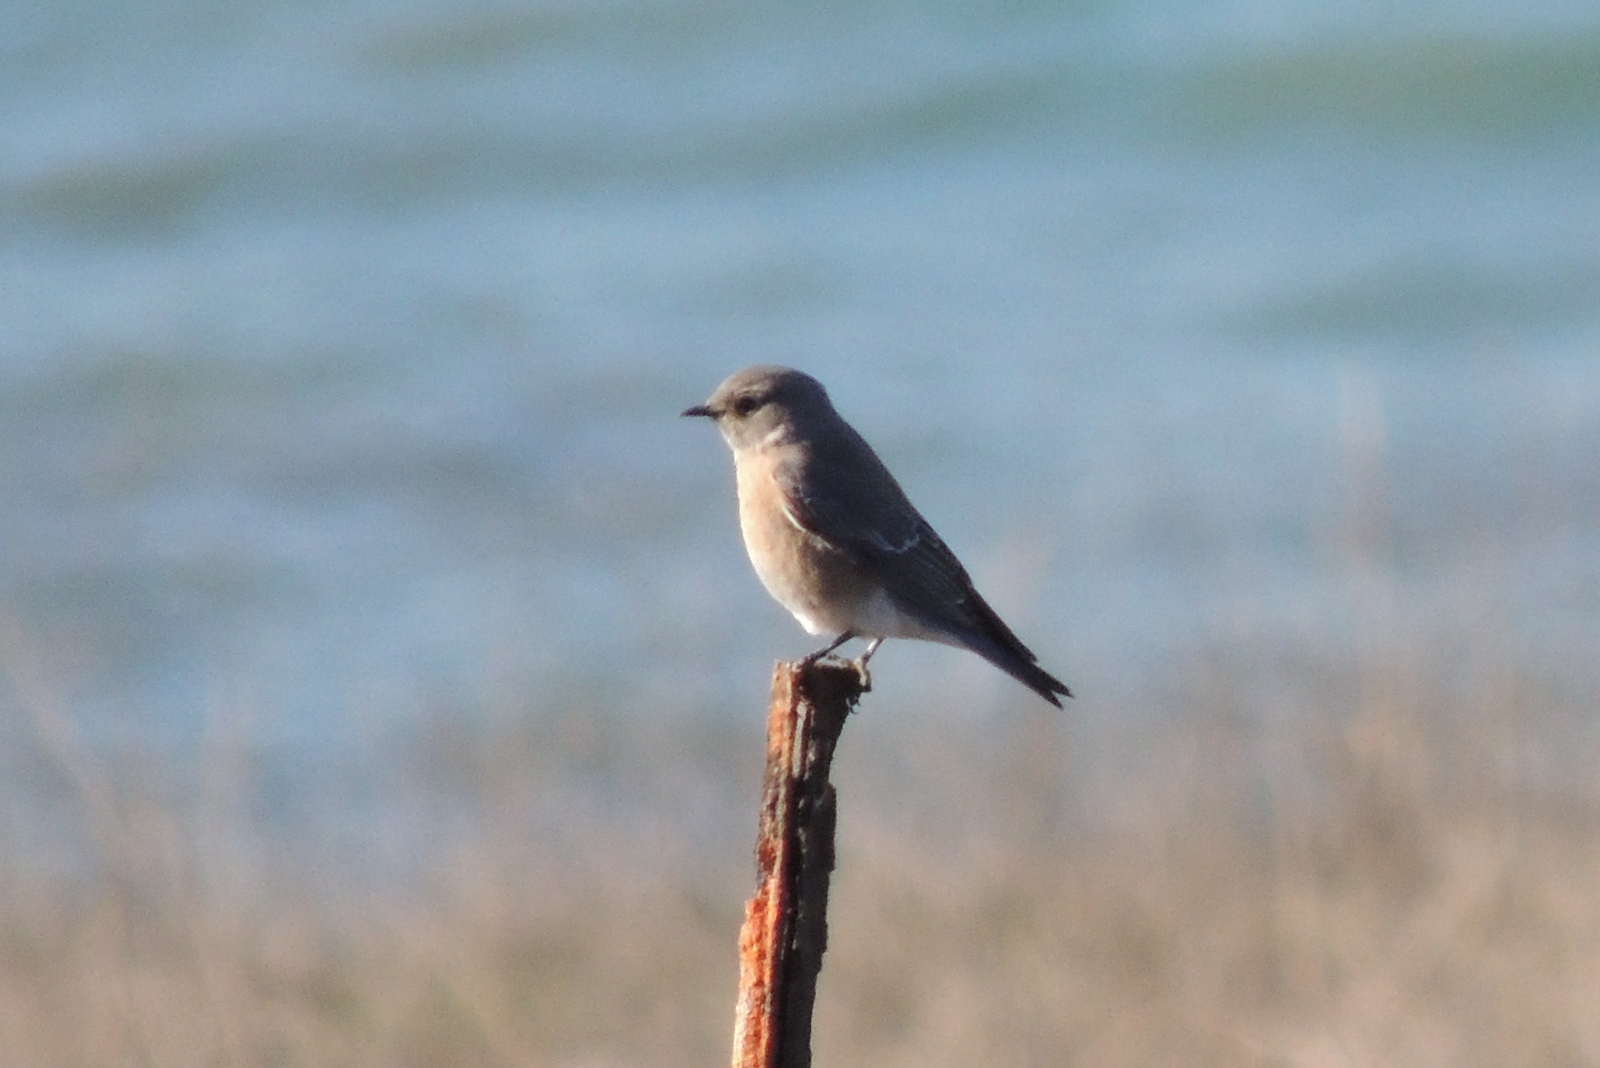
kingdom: Animalia
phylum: Chordata
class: Aves
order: Passeriformes
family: Turdidae
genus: Sialia
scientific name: Sialia mexicana
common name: Western bluebird
